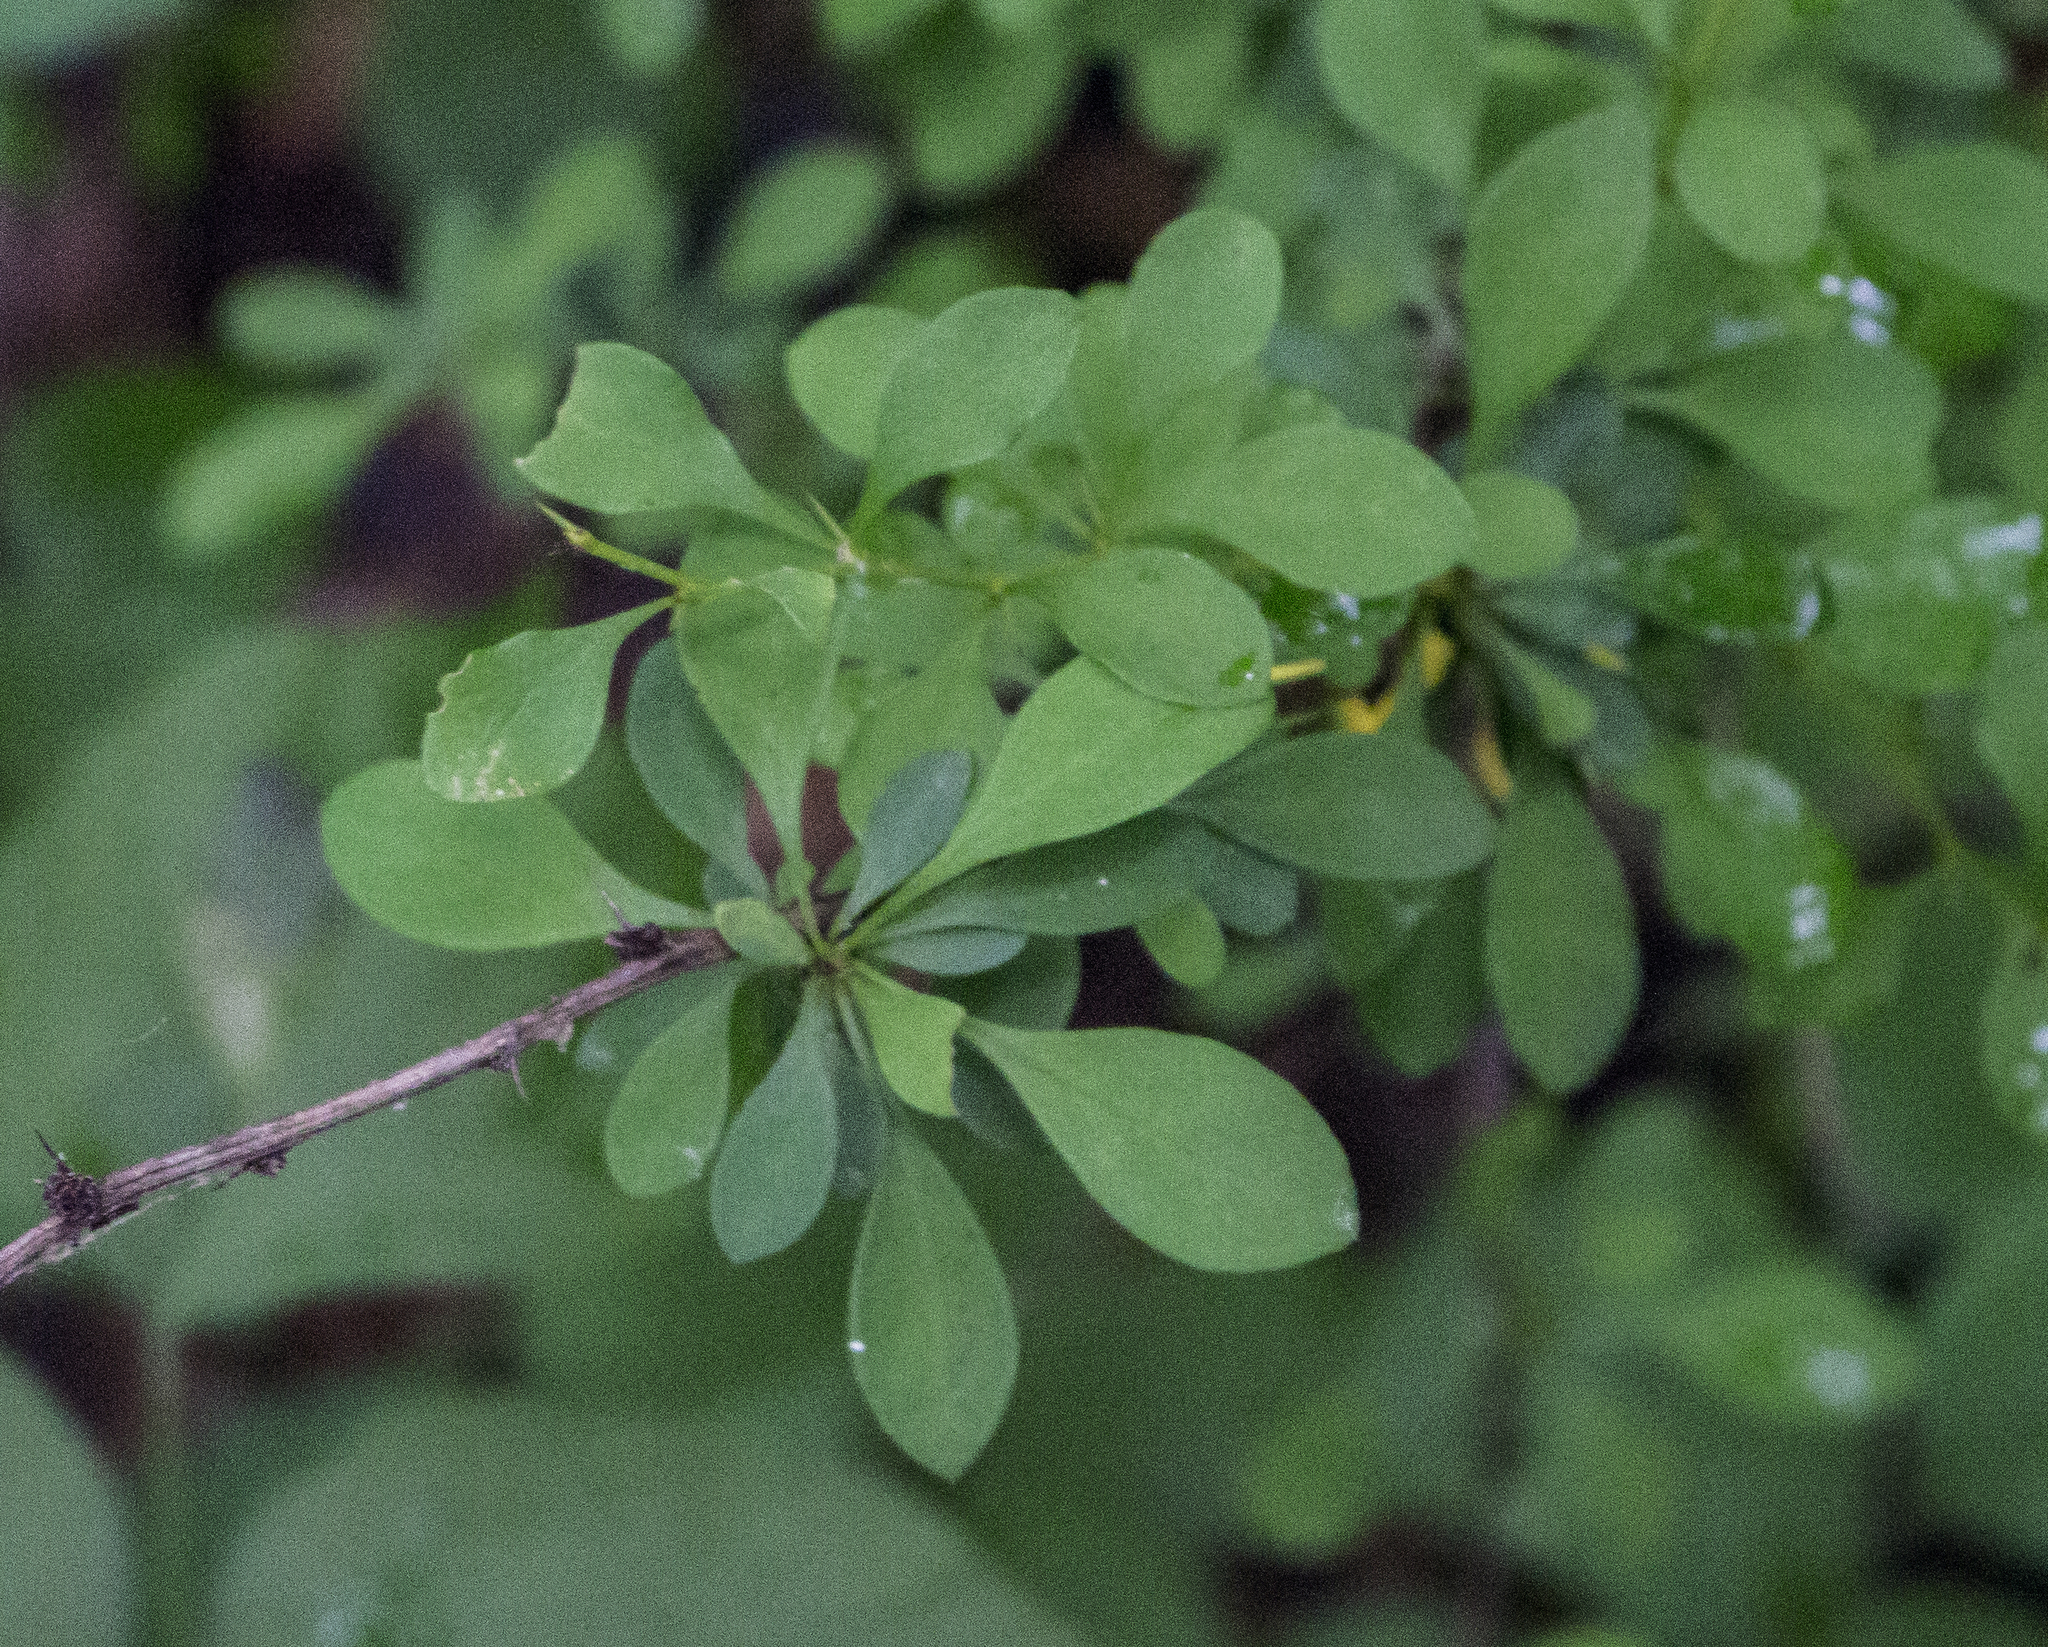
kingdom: Plantae
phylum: Tracheophyta
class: Magnoliopsida
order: Ranunculales
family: Berberidaceae
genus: Berberis
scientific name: Berberis thunbergii
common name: Japanese barberry
